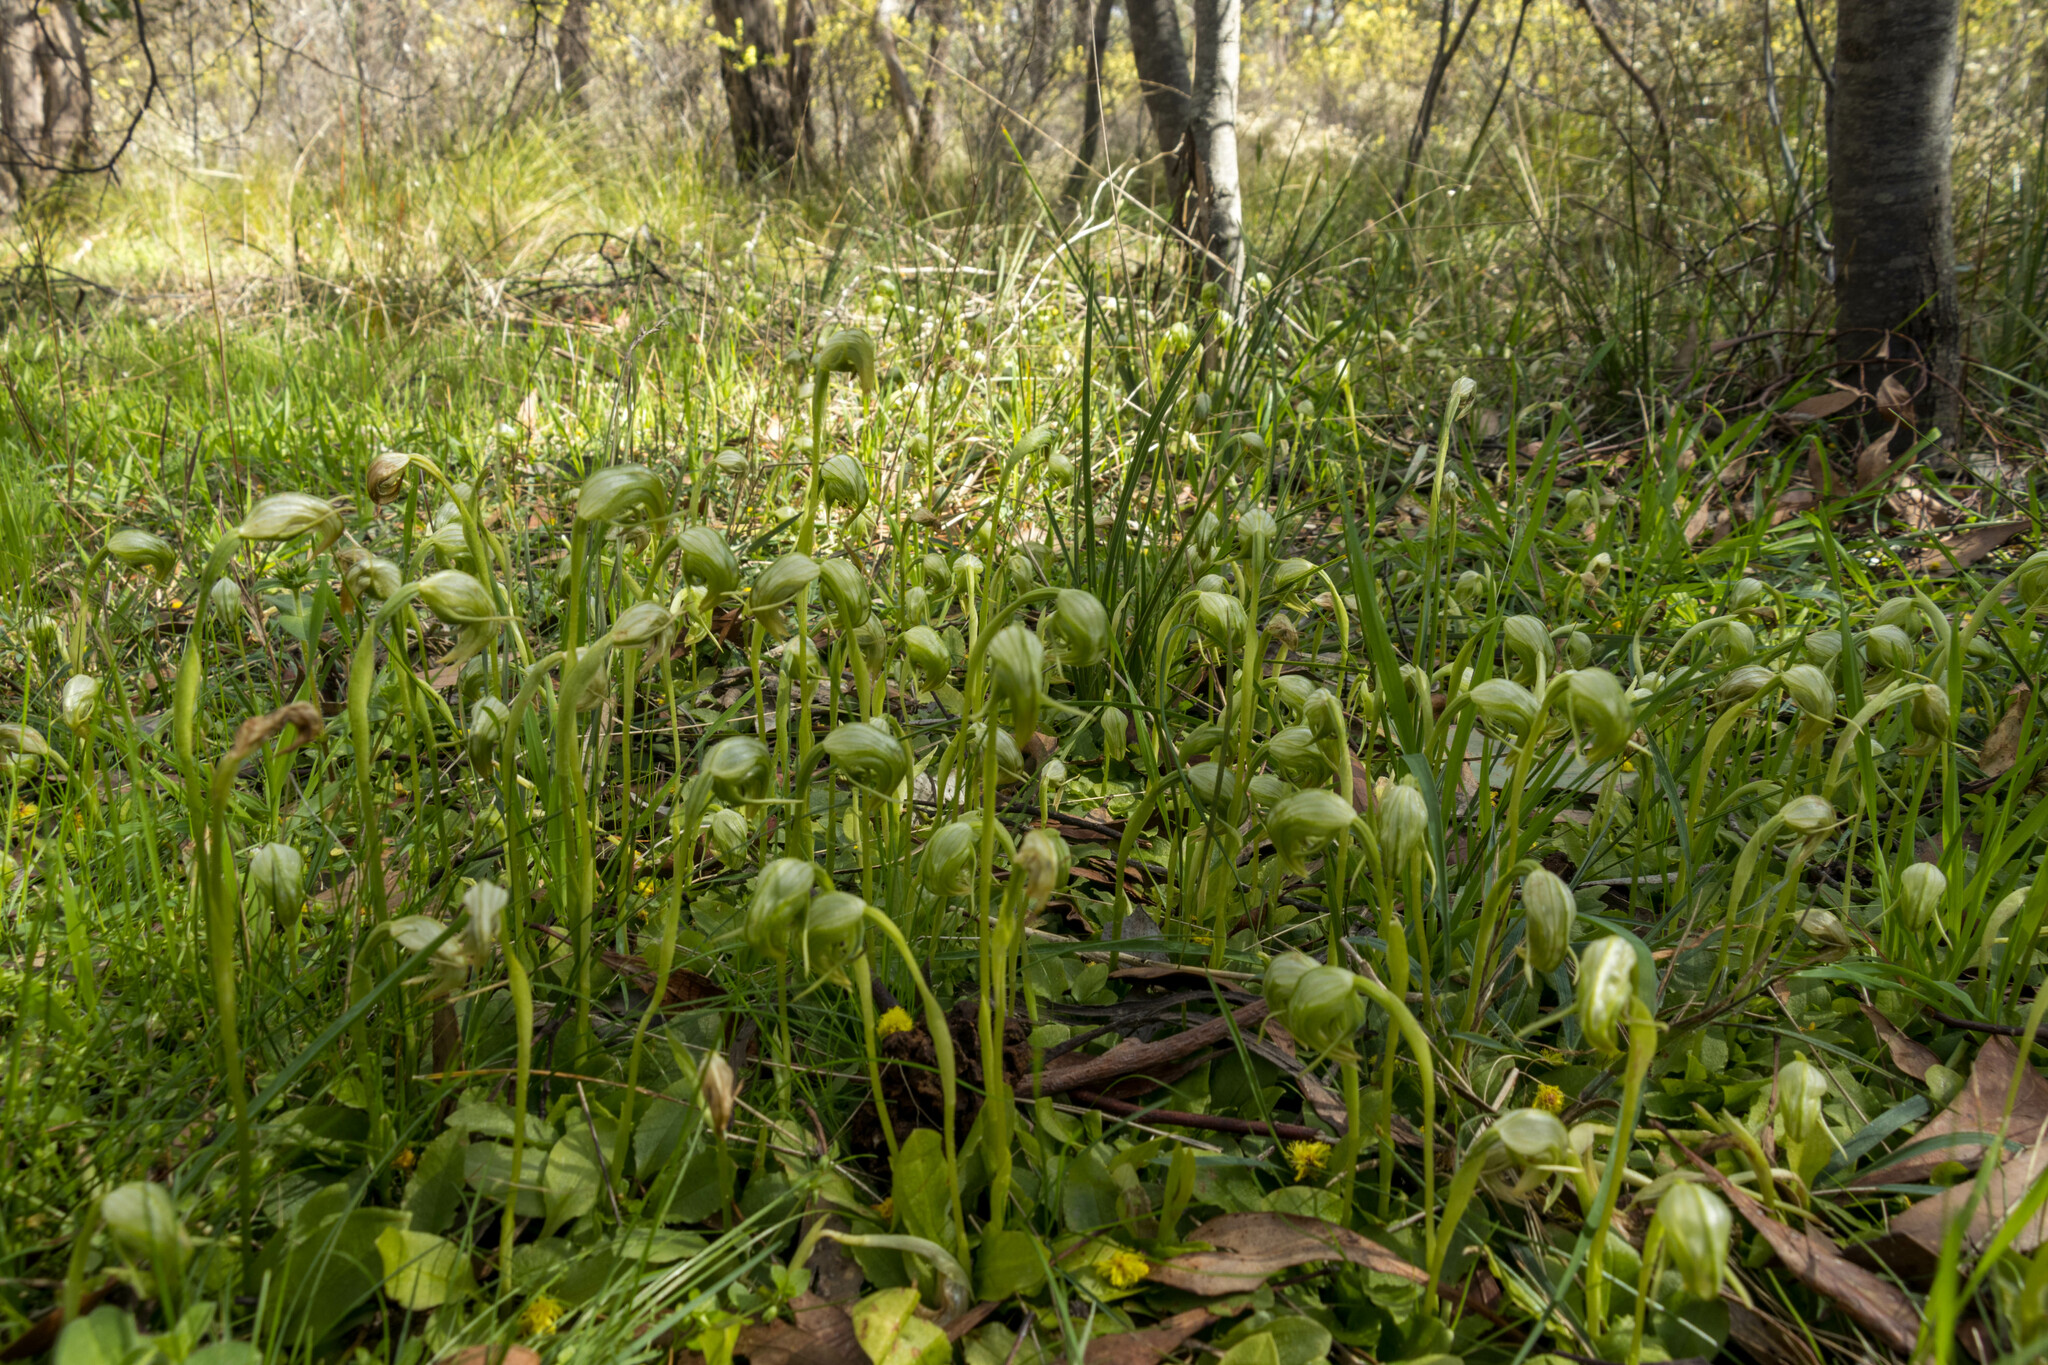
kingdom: Plantae
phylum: Tracheophyta
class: Liliopsida
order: Asparagales
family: Orchidaceae
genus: Pterostylis
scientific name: Pterostylis nutans
